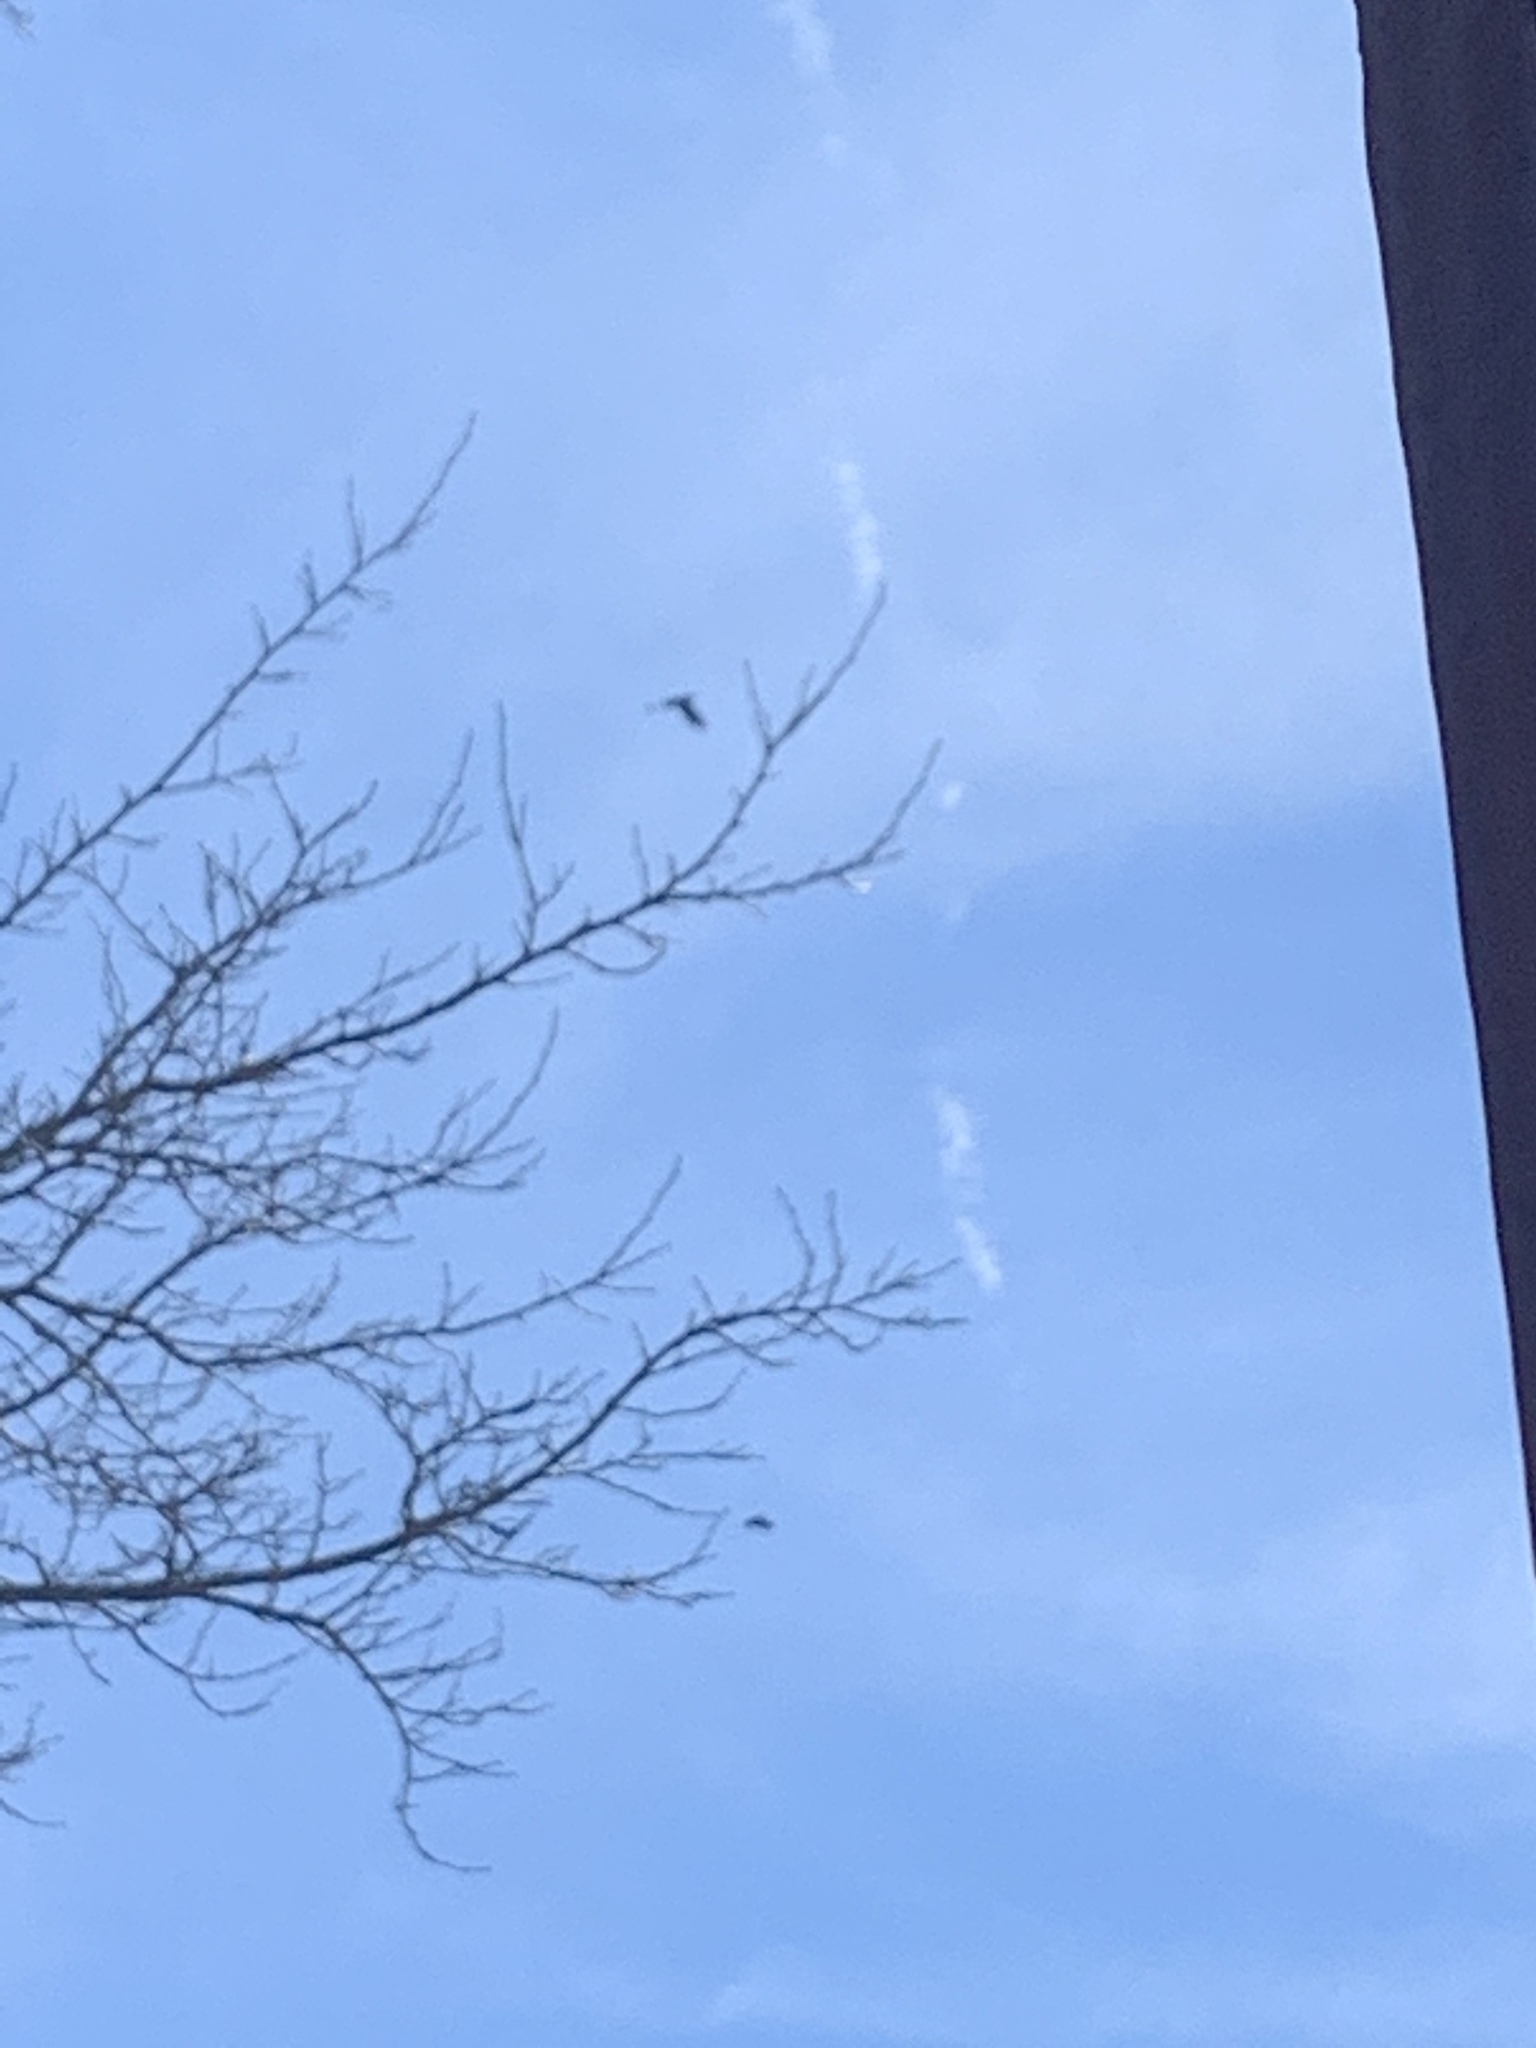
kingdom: Animalia
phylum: Chordata
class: Aves
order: Passeriformes
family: Corvidae
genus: Corvus
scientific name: Corvus ossifragus
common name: Fish crow
